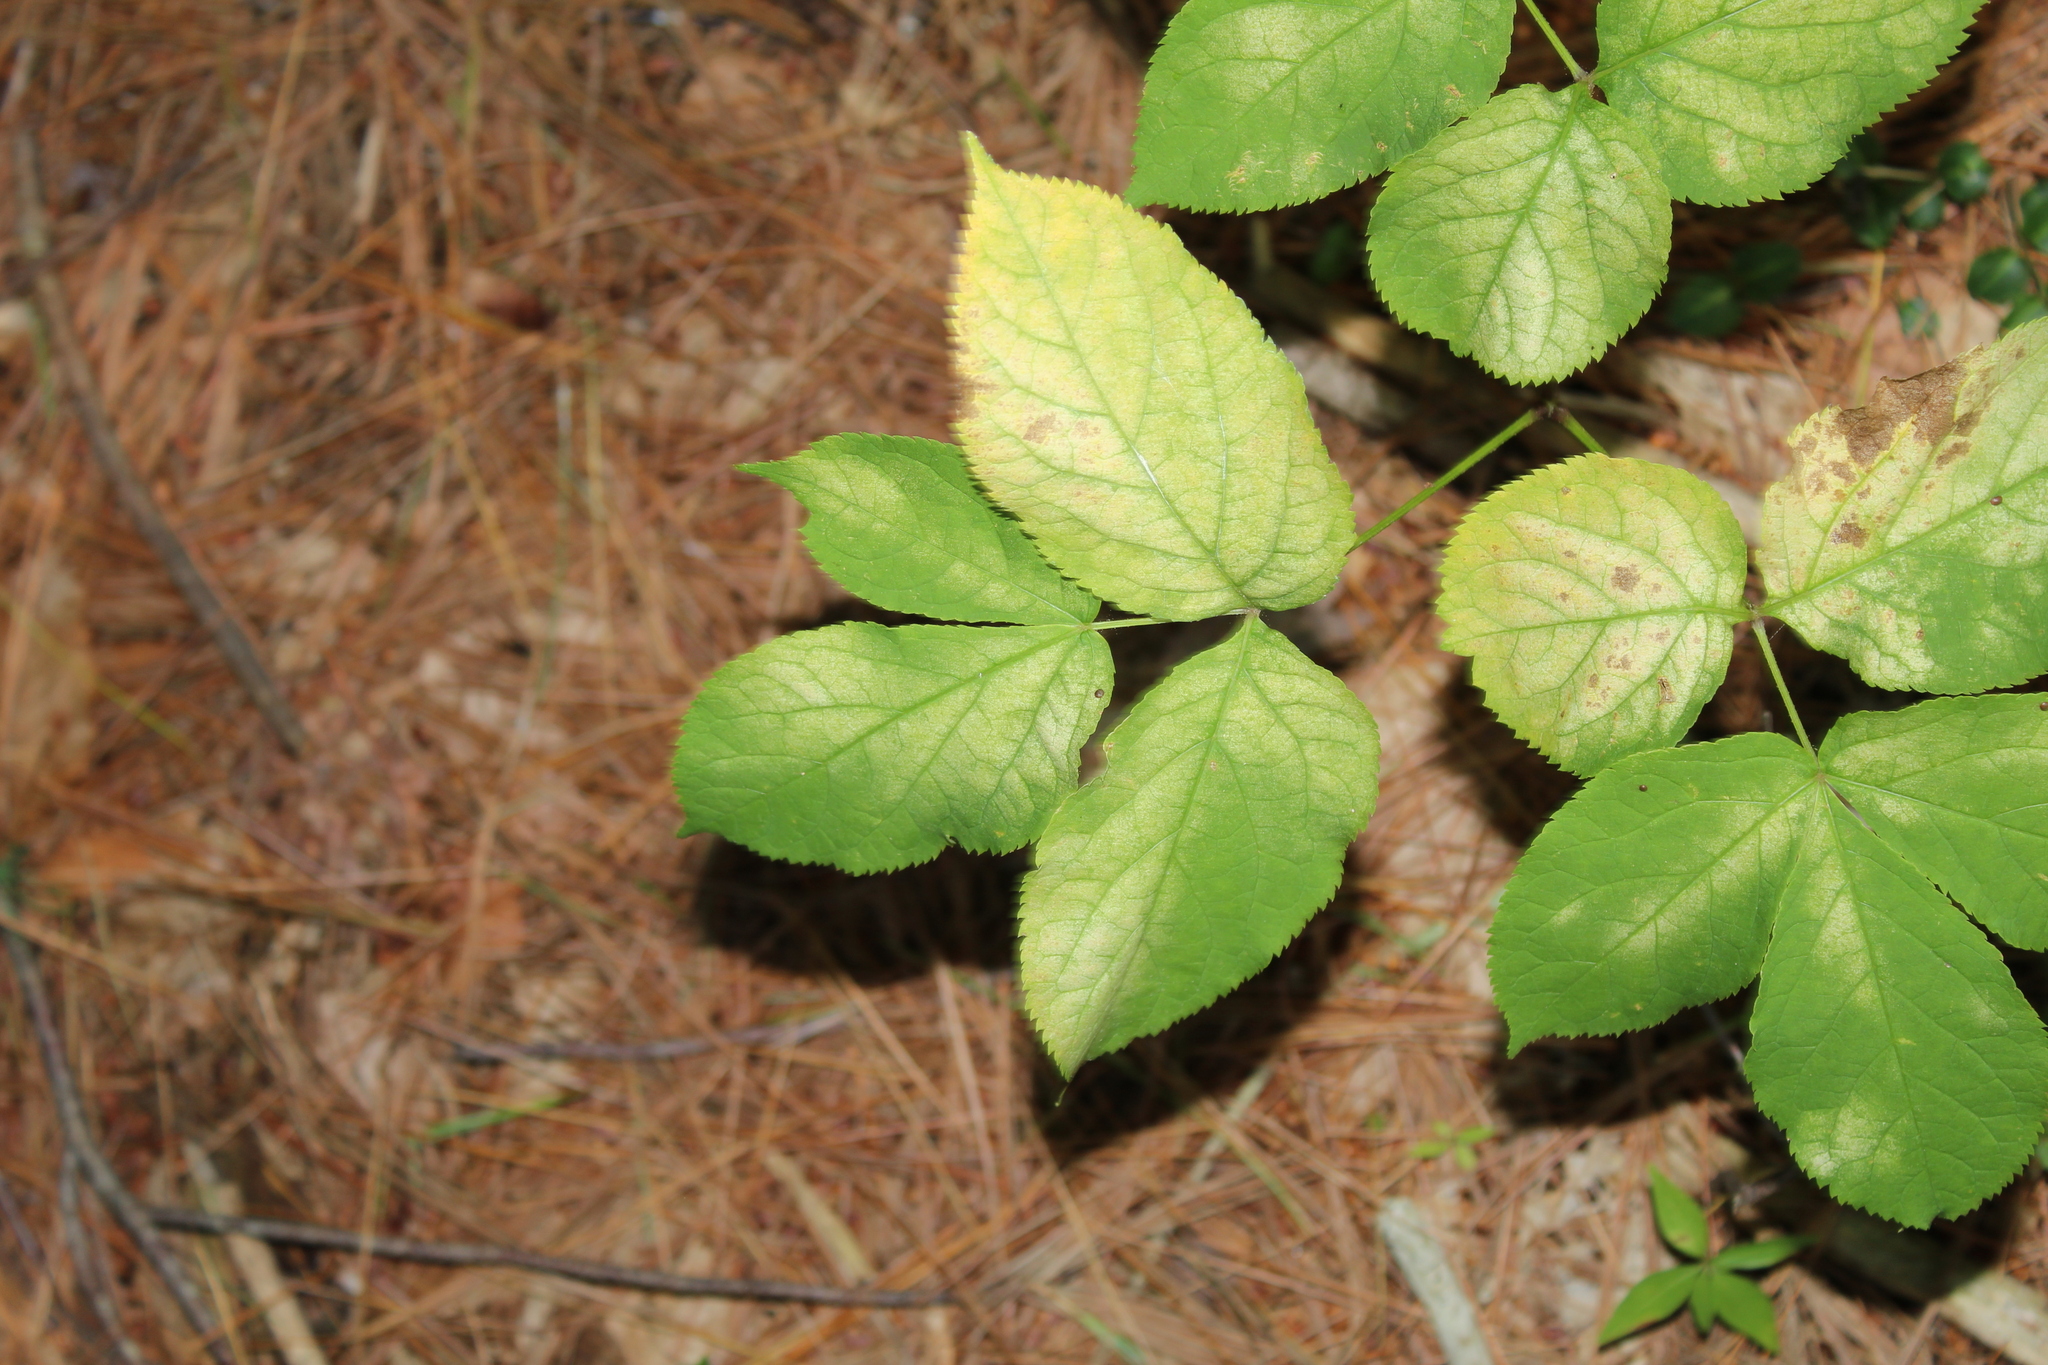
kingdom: Plantae
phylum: Tracheophyta
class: Magnoliopsida
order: Apiales
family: Araliaceae
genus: Aralia
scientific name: Aralia nudicaulis
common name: Wild sarsaparilla
